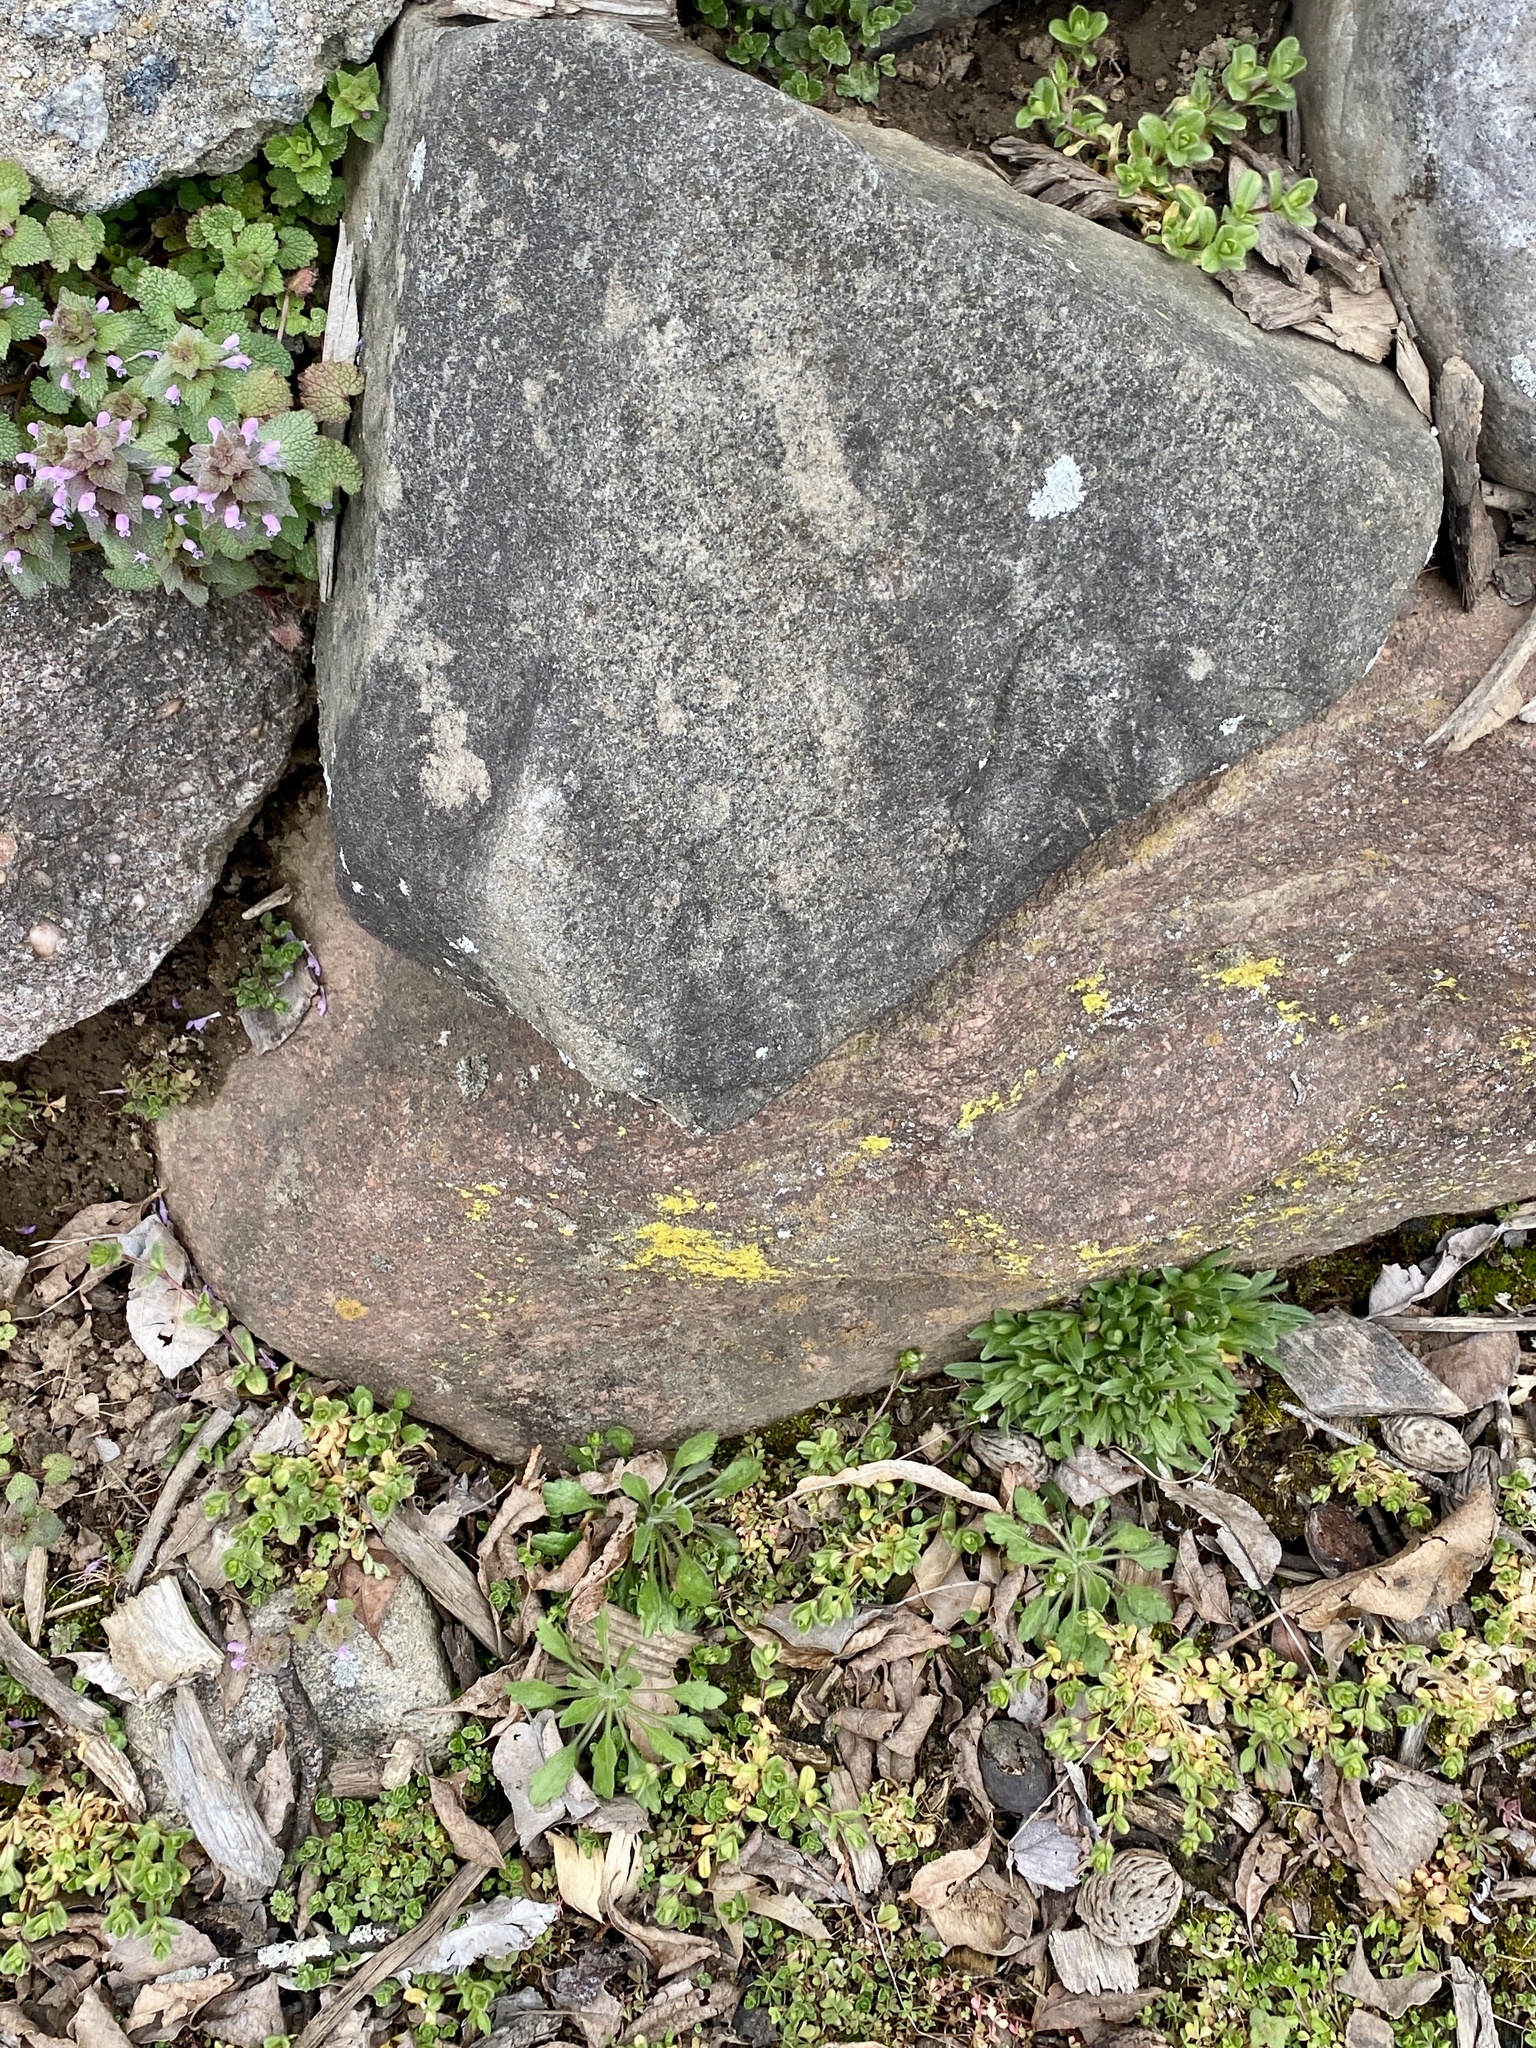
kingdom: Fungi
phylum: Ascomycota
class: Candelariomycetes
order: Candelariales
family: Candelariaceae
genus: Candelaria
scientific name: Candelaria concolor
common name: Candleflame lichen
